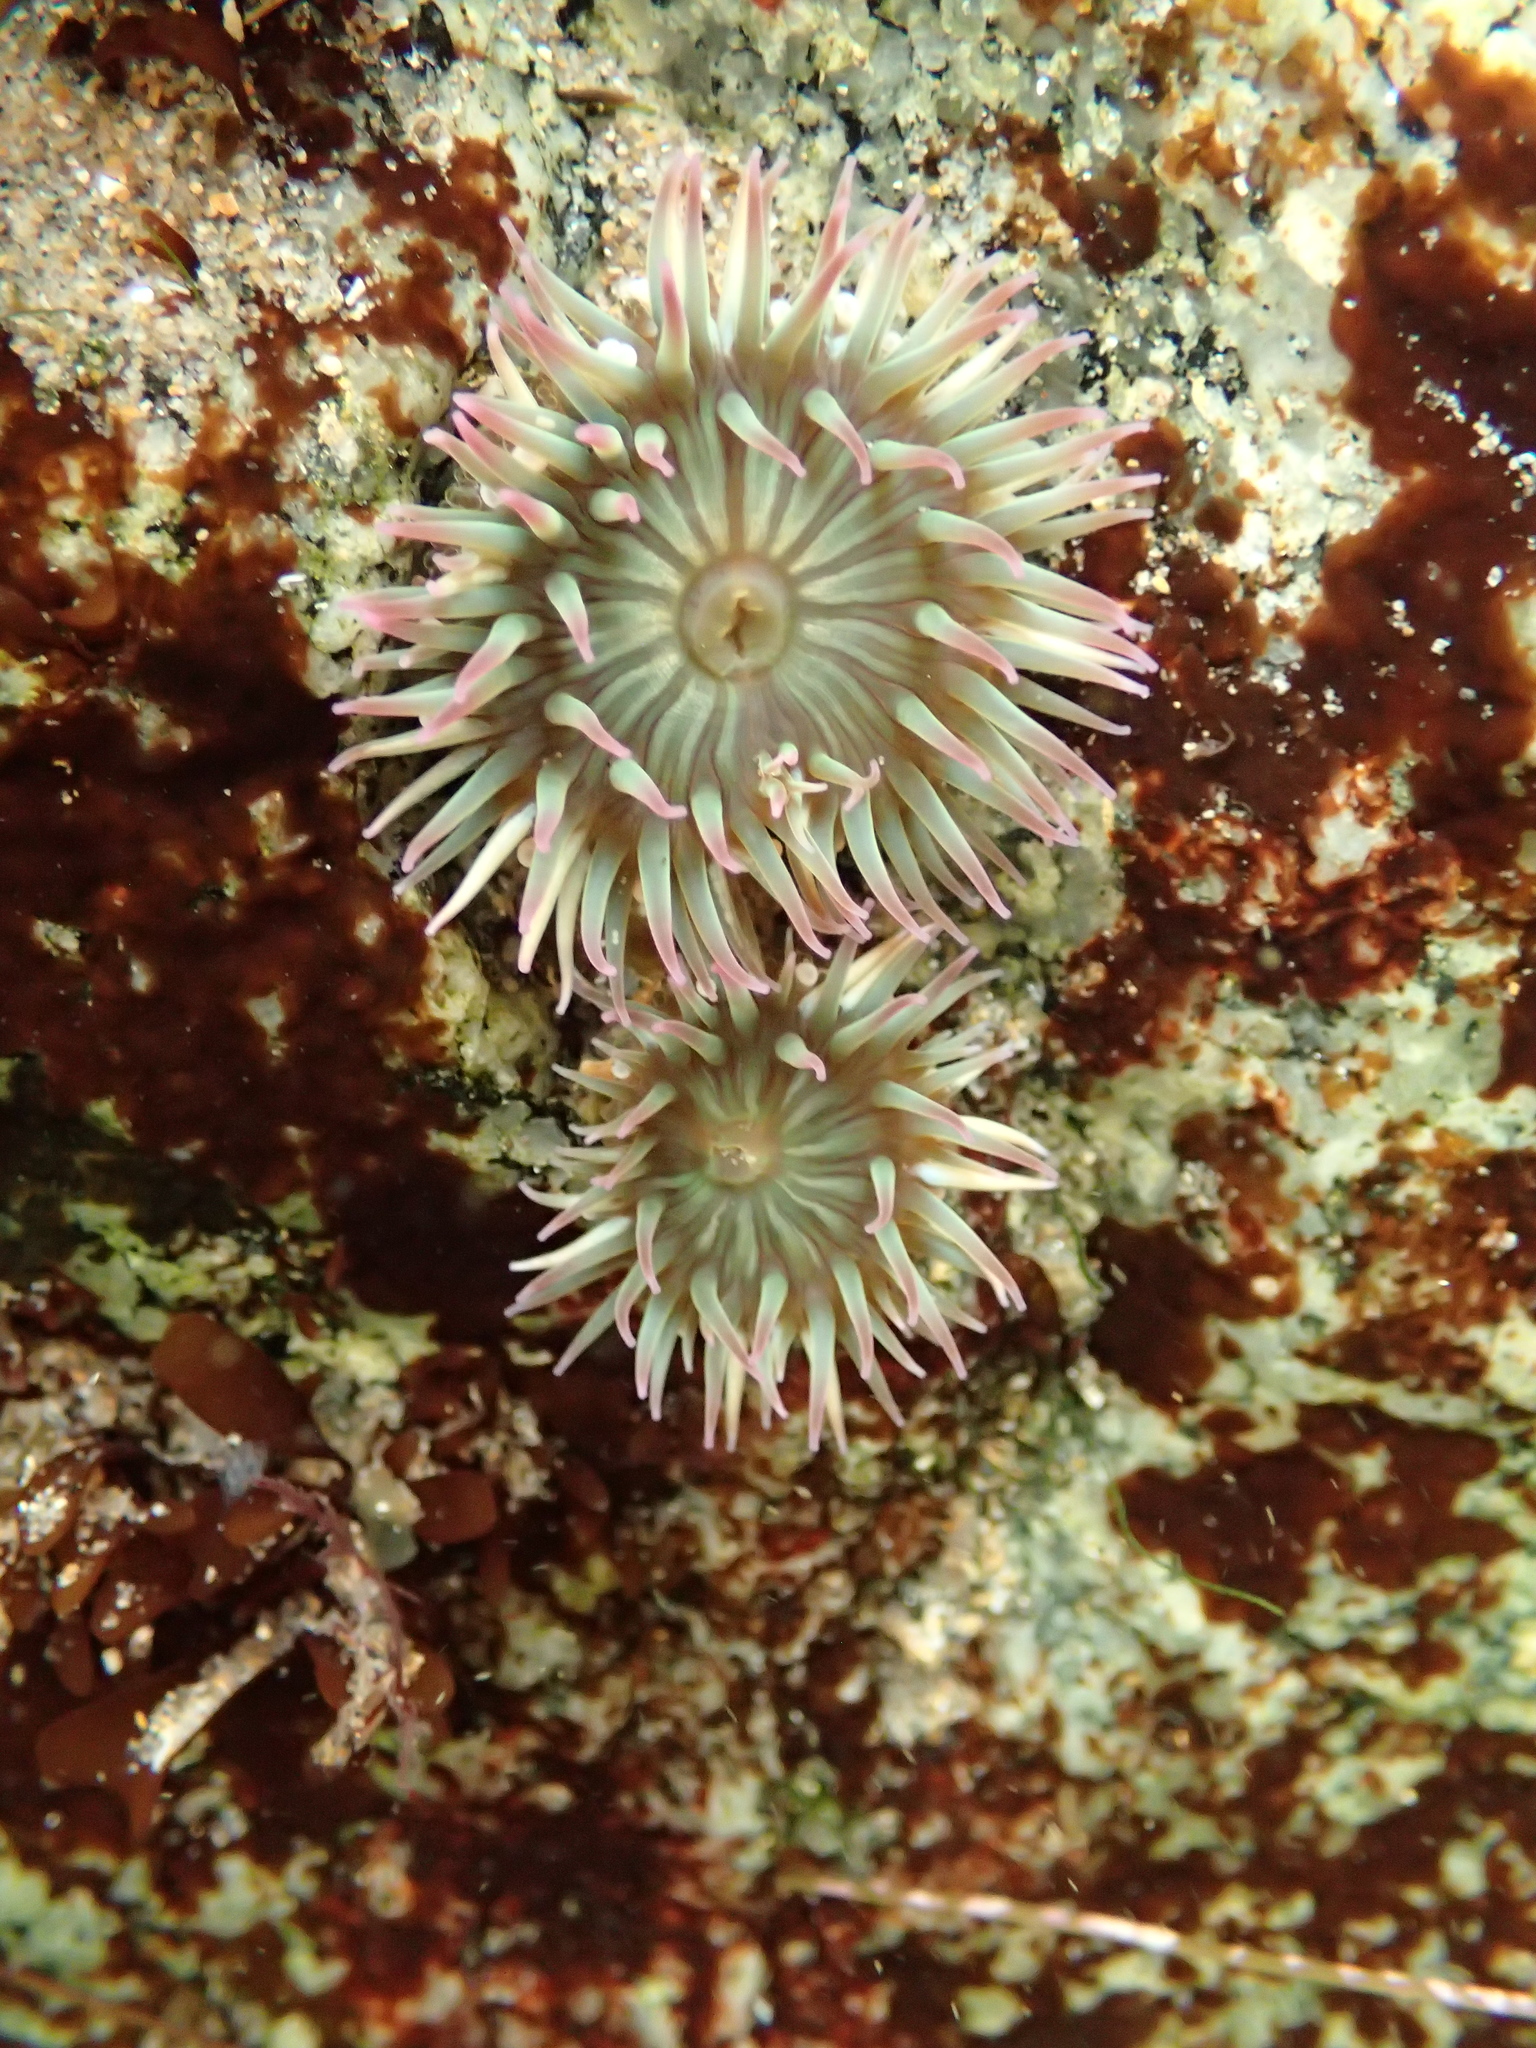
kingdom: Animalia
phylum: Cnidaria
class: Anthozoa
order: Actiniaria
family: Actiniidae
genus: Anthopleura
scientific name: Anthopleura elegantissima
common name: Clonal anemone
